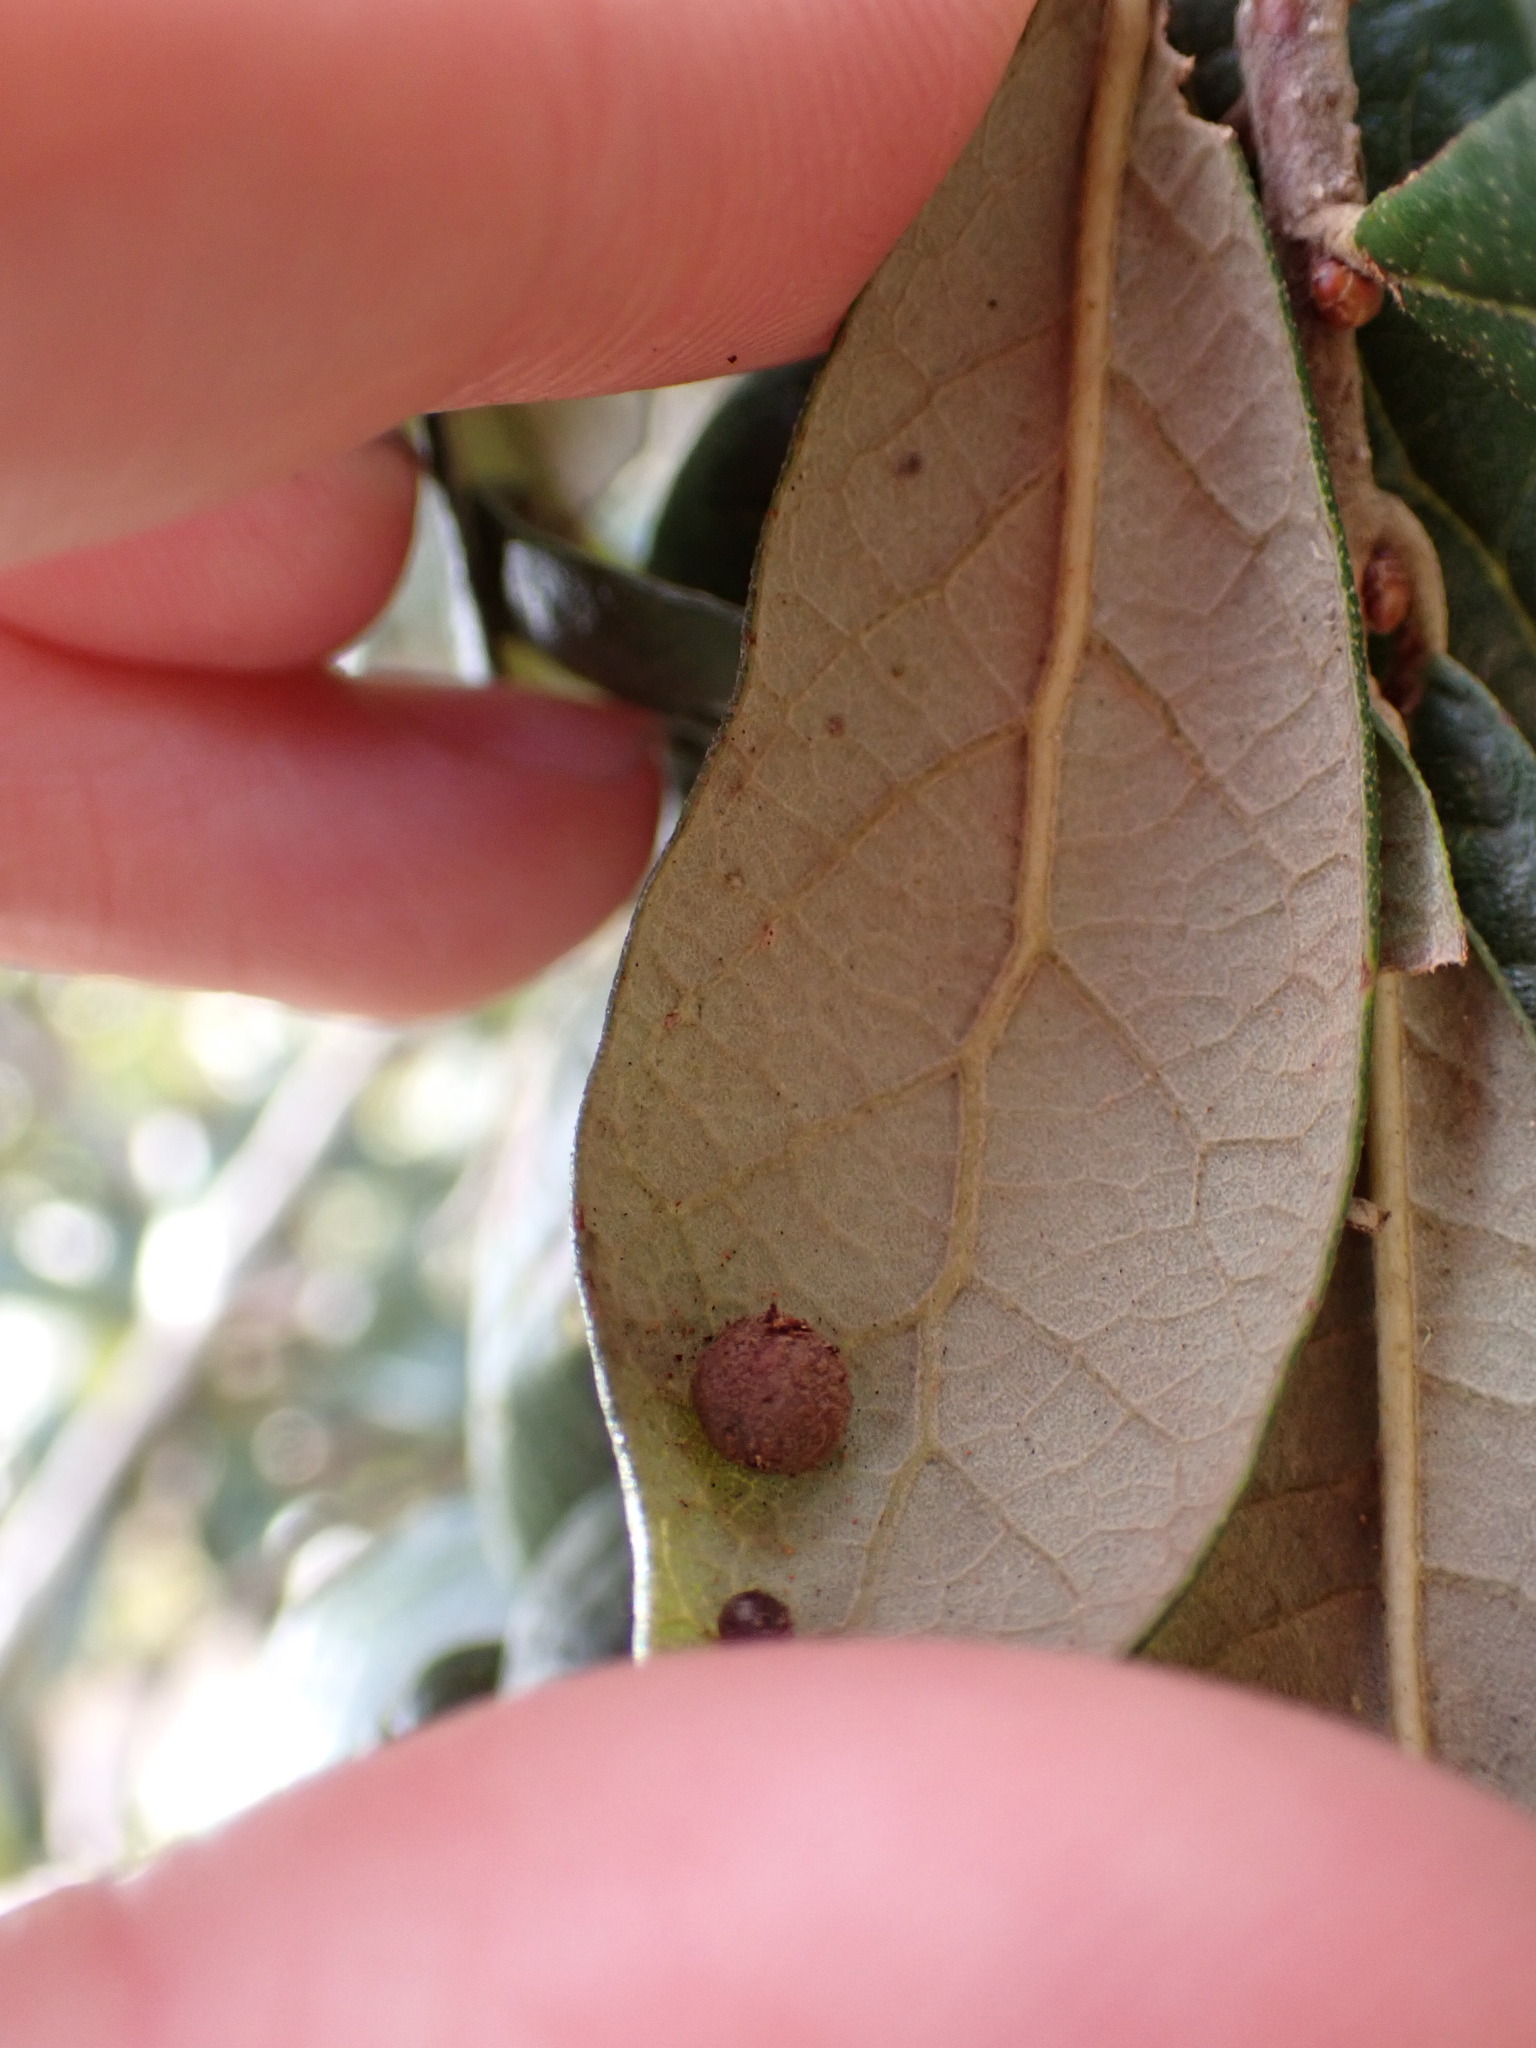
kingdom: Animalia
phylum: Arthropoda
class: Insecta
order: Hymenoptera
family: Cynipidae
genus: Belonocnema
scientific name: Belonocnema fossoria
